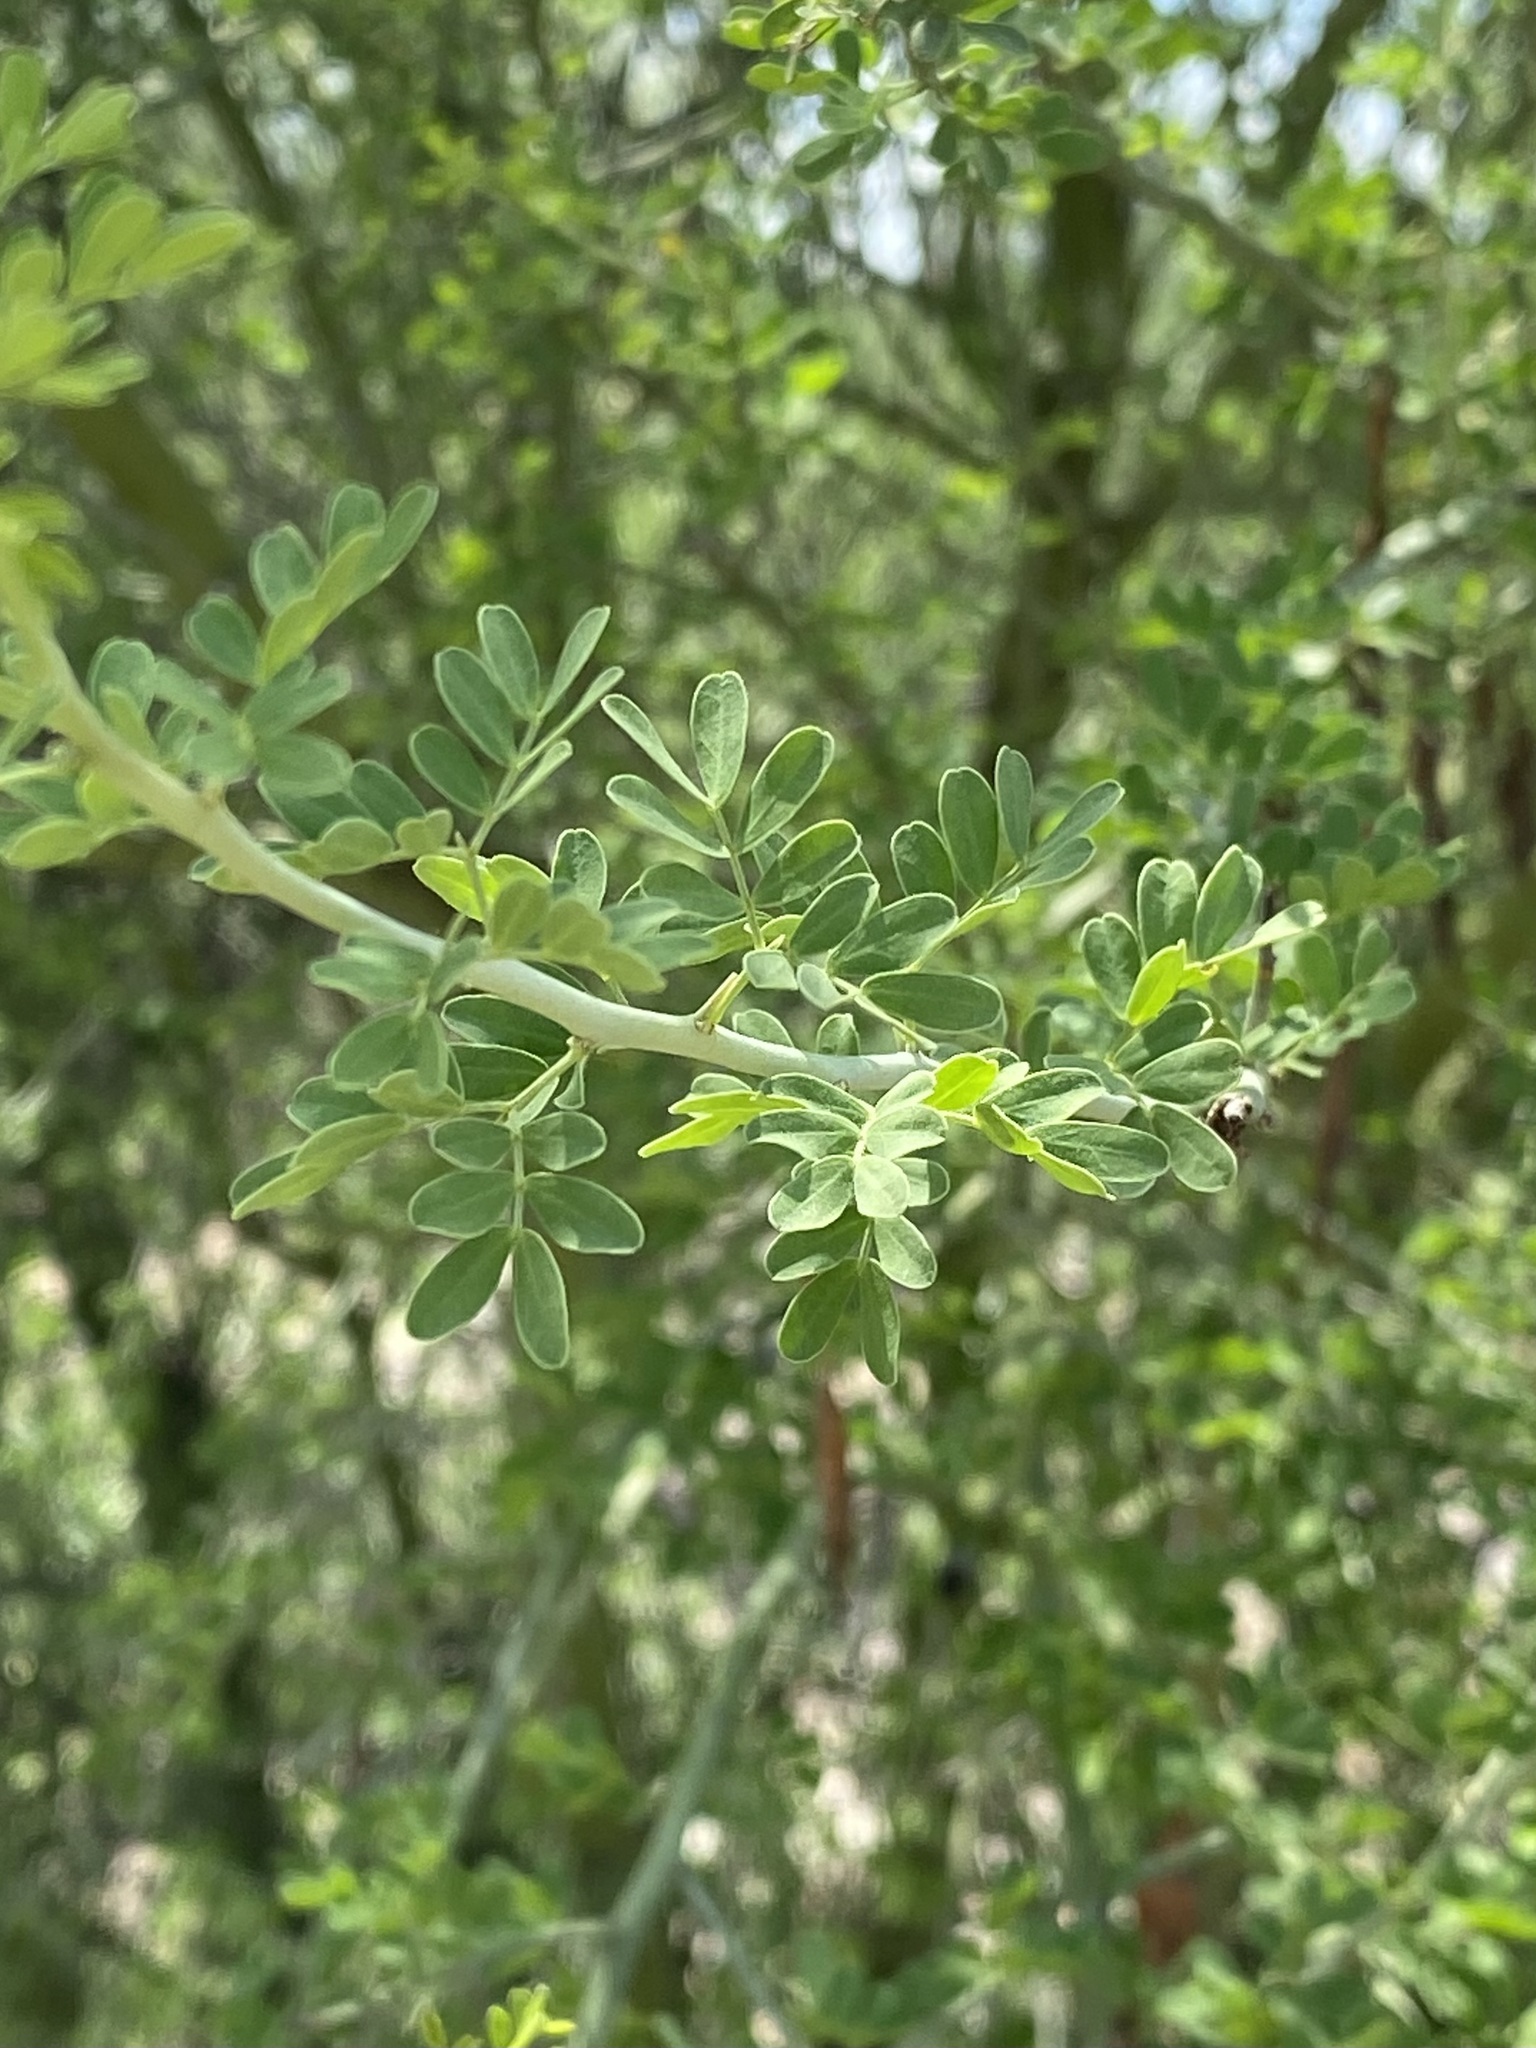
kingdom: Plantae
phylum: Tracheophyta
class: Magnoliopsida
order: Fabales
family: Fabaceae
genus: Parkinsonia
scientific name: Parkinsonia florida
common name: Blue paloverde
